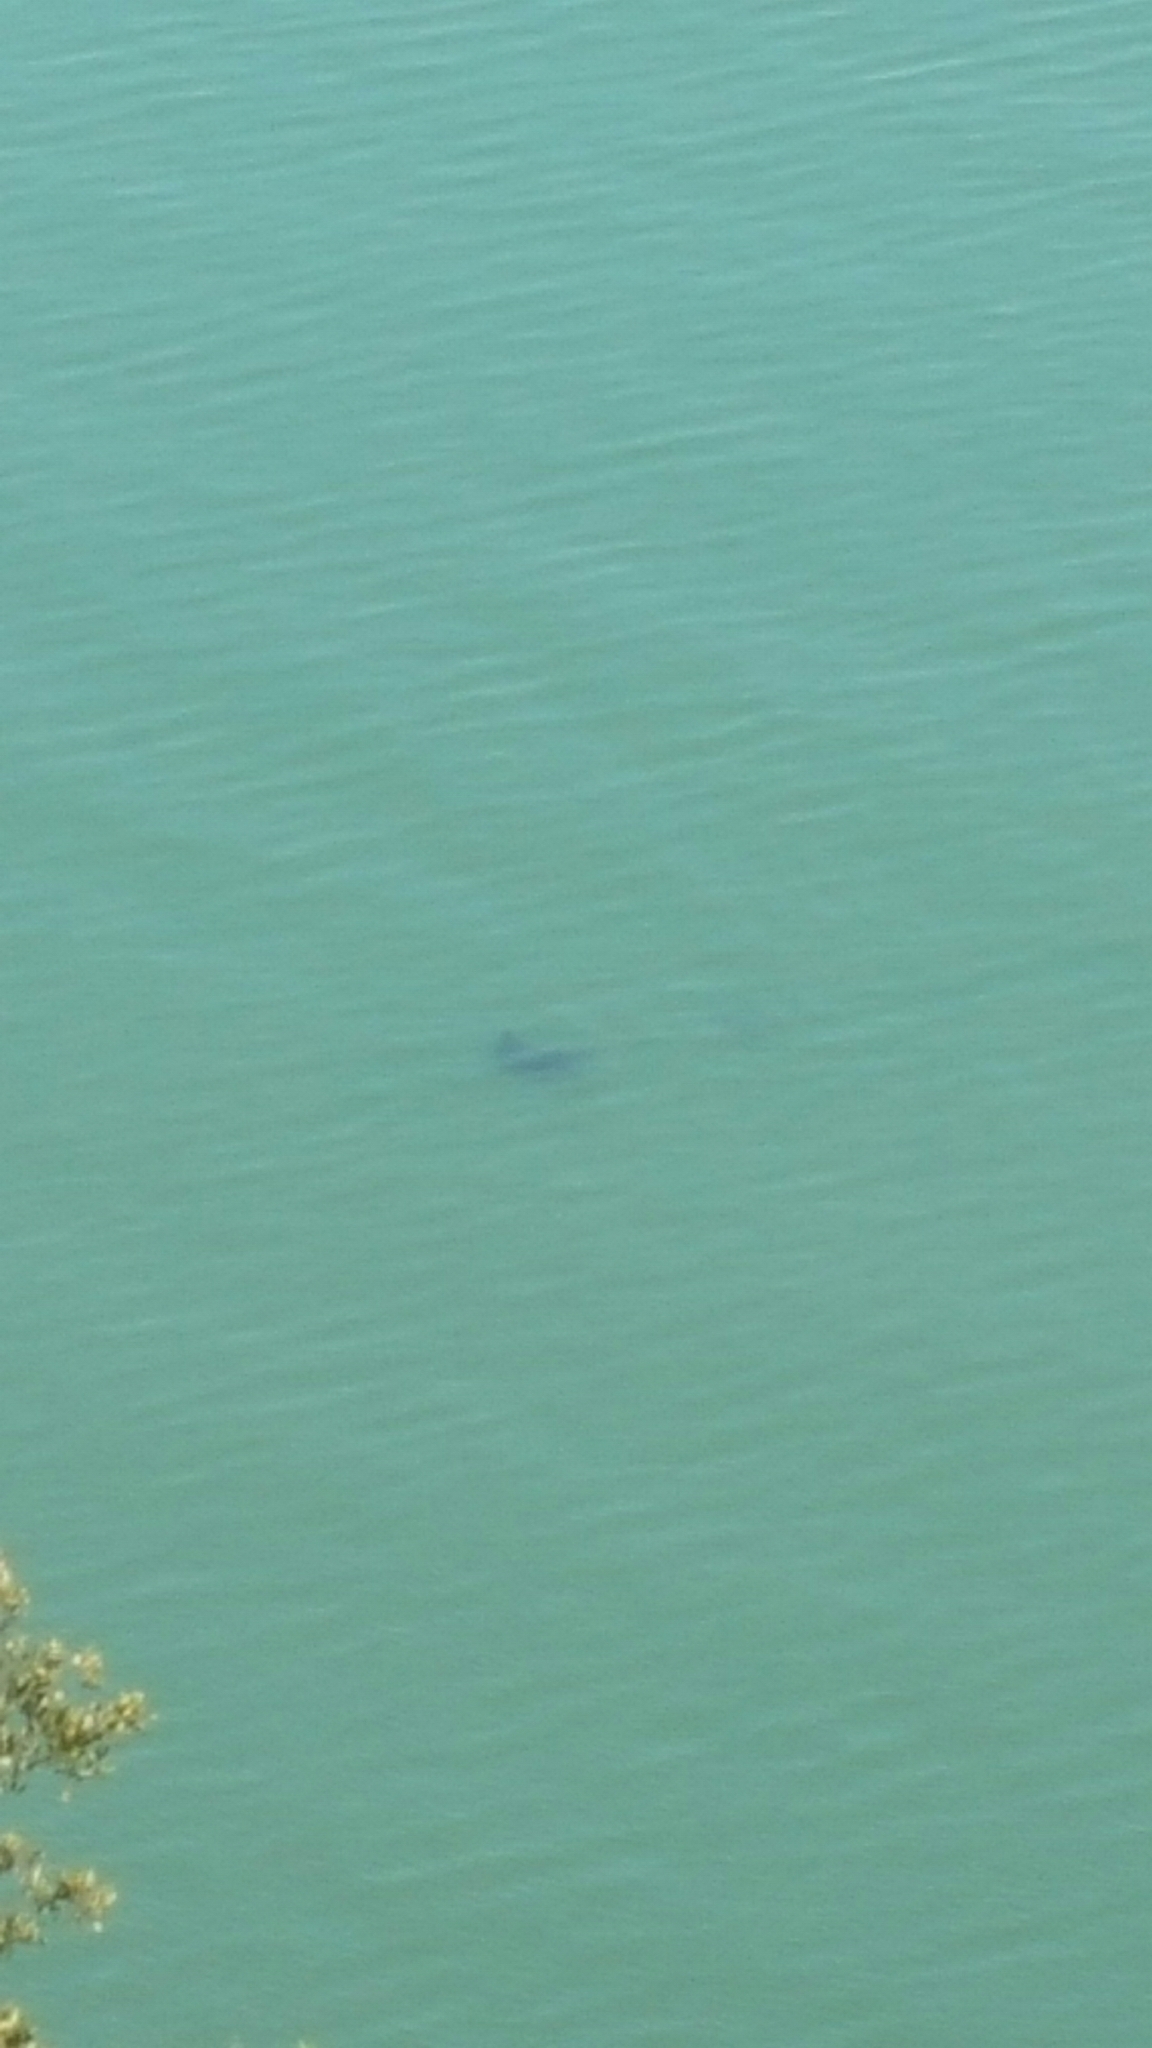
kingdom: Animalia
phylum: Chordata
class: Elasmobranchii
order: Myliobatiformes
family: Myliobatidae
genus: Myliobatis
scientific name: Myliobatis californica
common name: Bat ray
